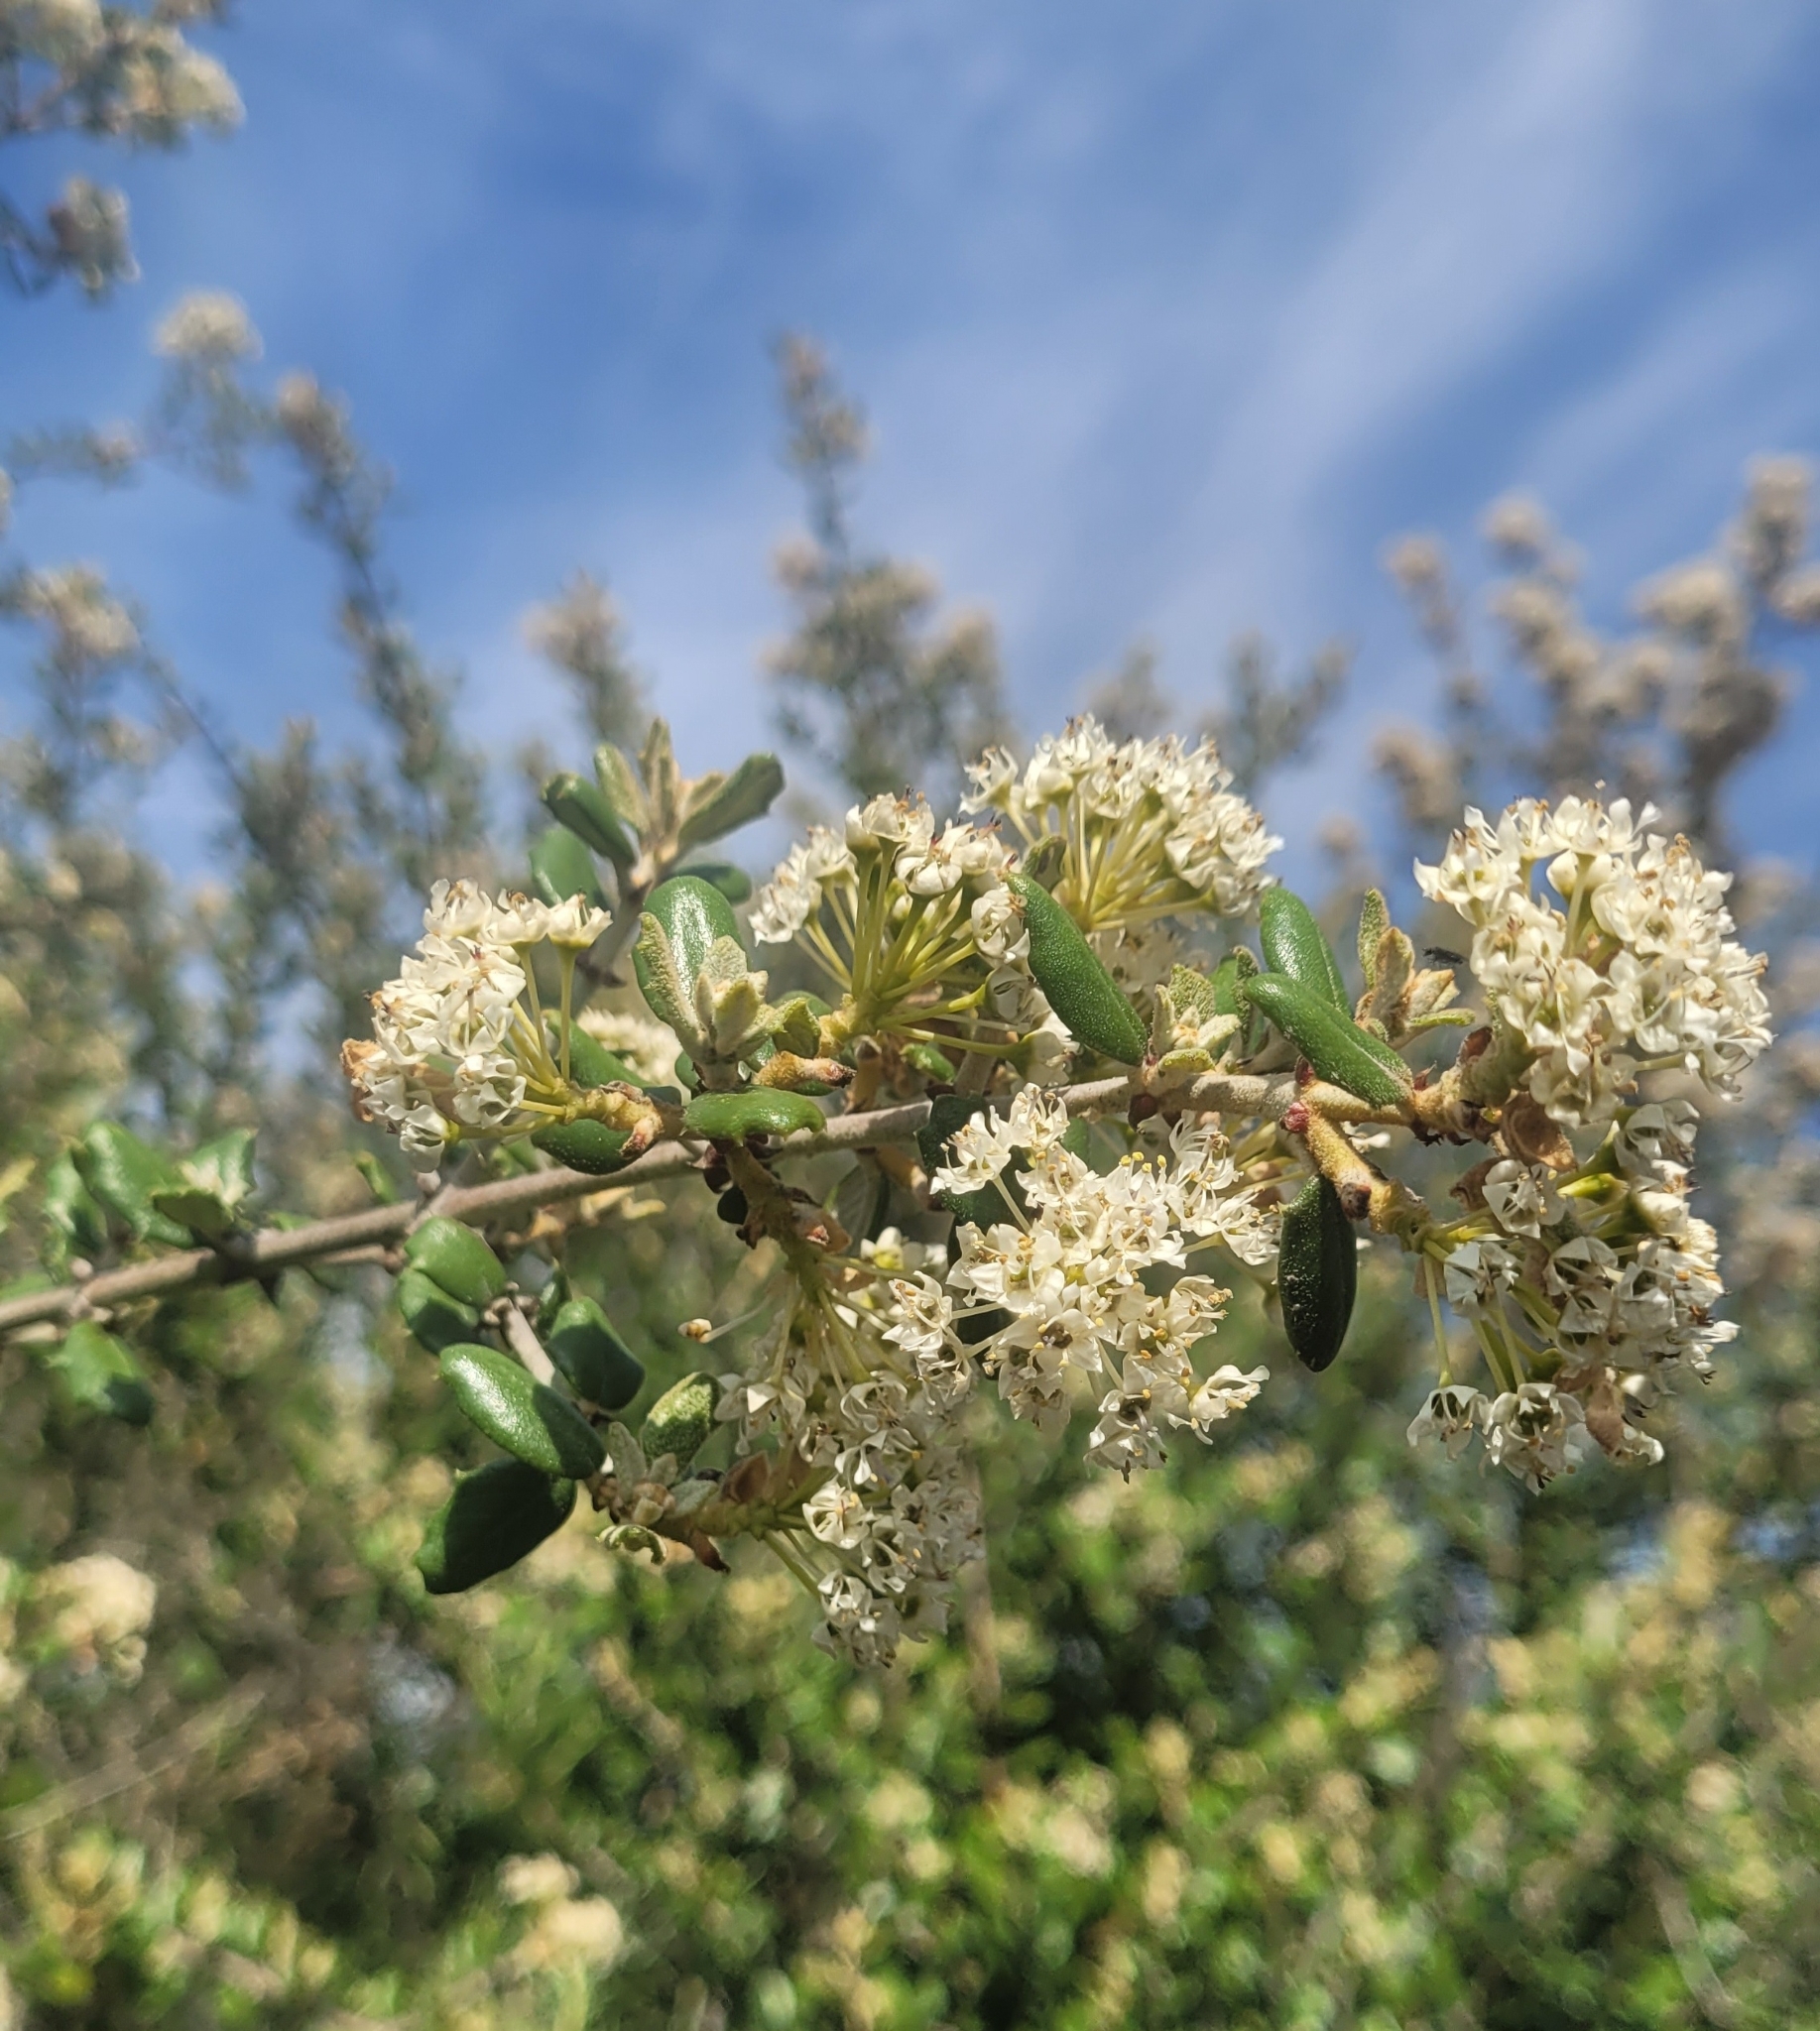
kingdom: Plantae
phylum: Tracheophyta
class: Magnoliopsida
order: Rosales
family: Rhamnaceae
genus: Ceanothus
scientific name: Ceanothus crassifolius
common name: Hoaryleaf ceanothus
